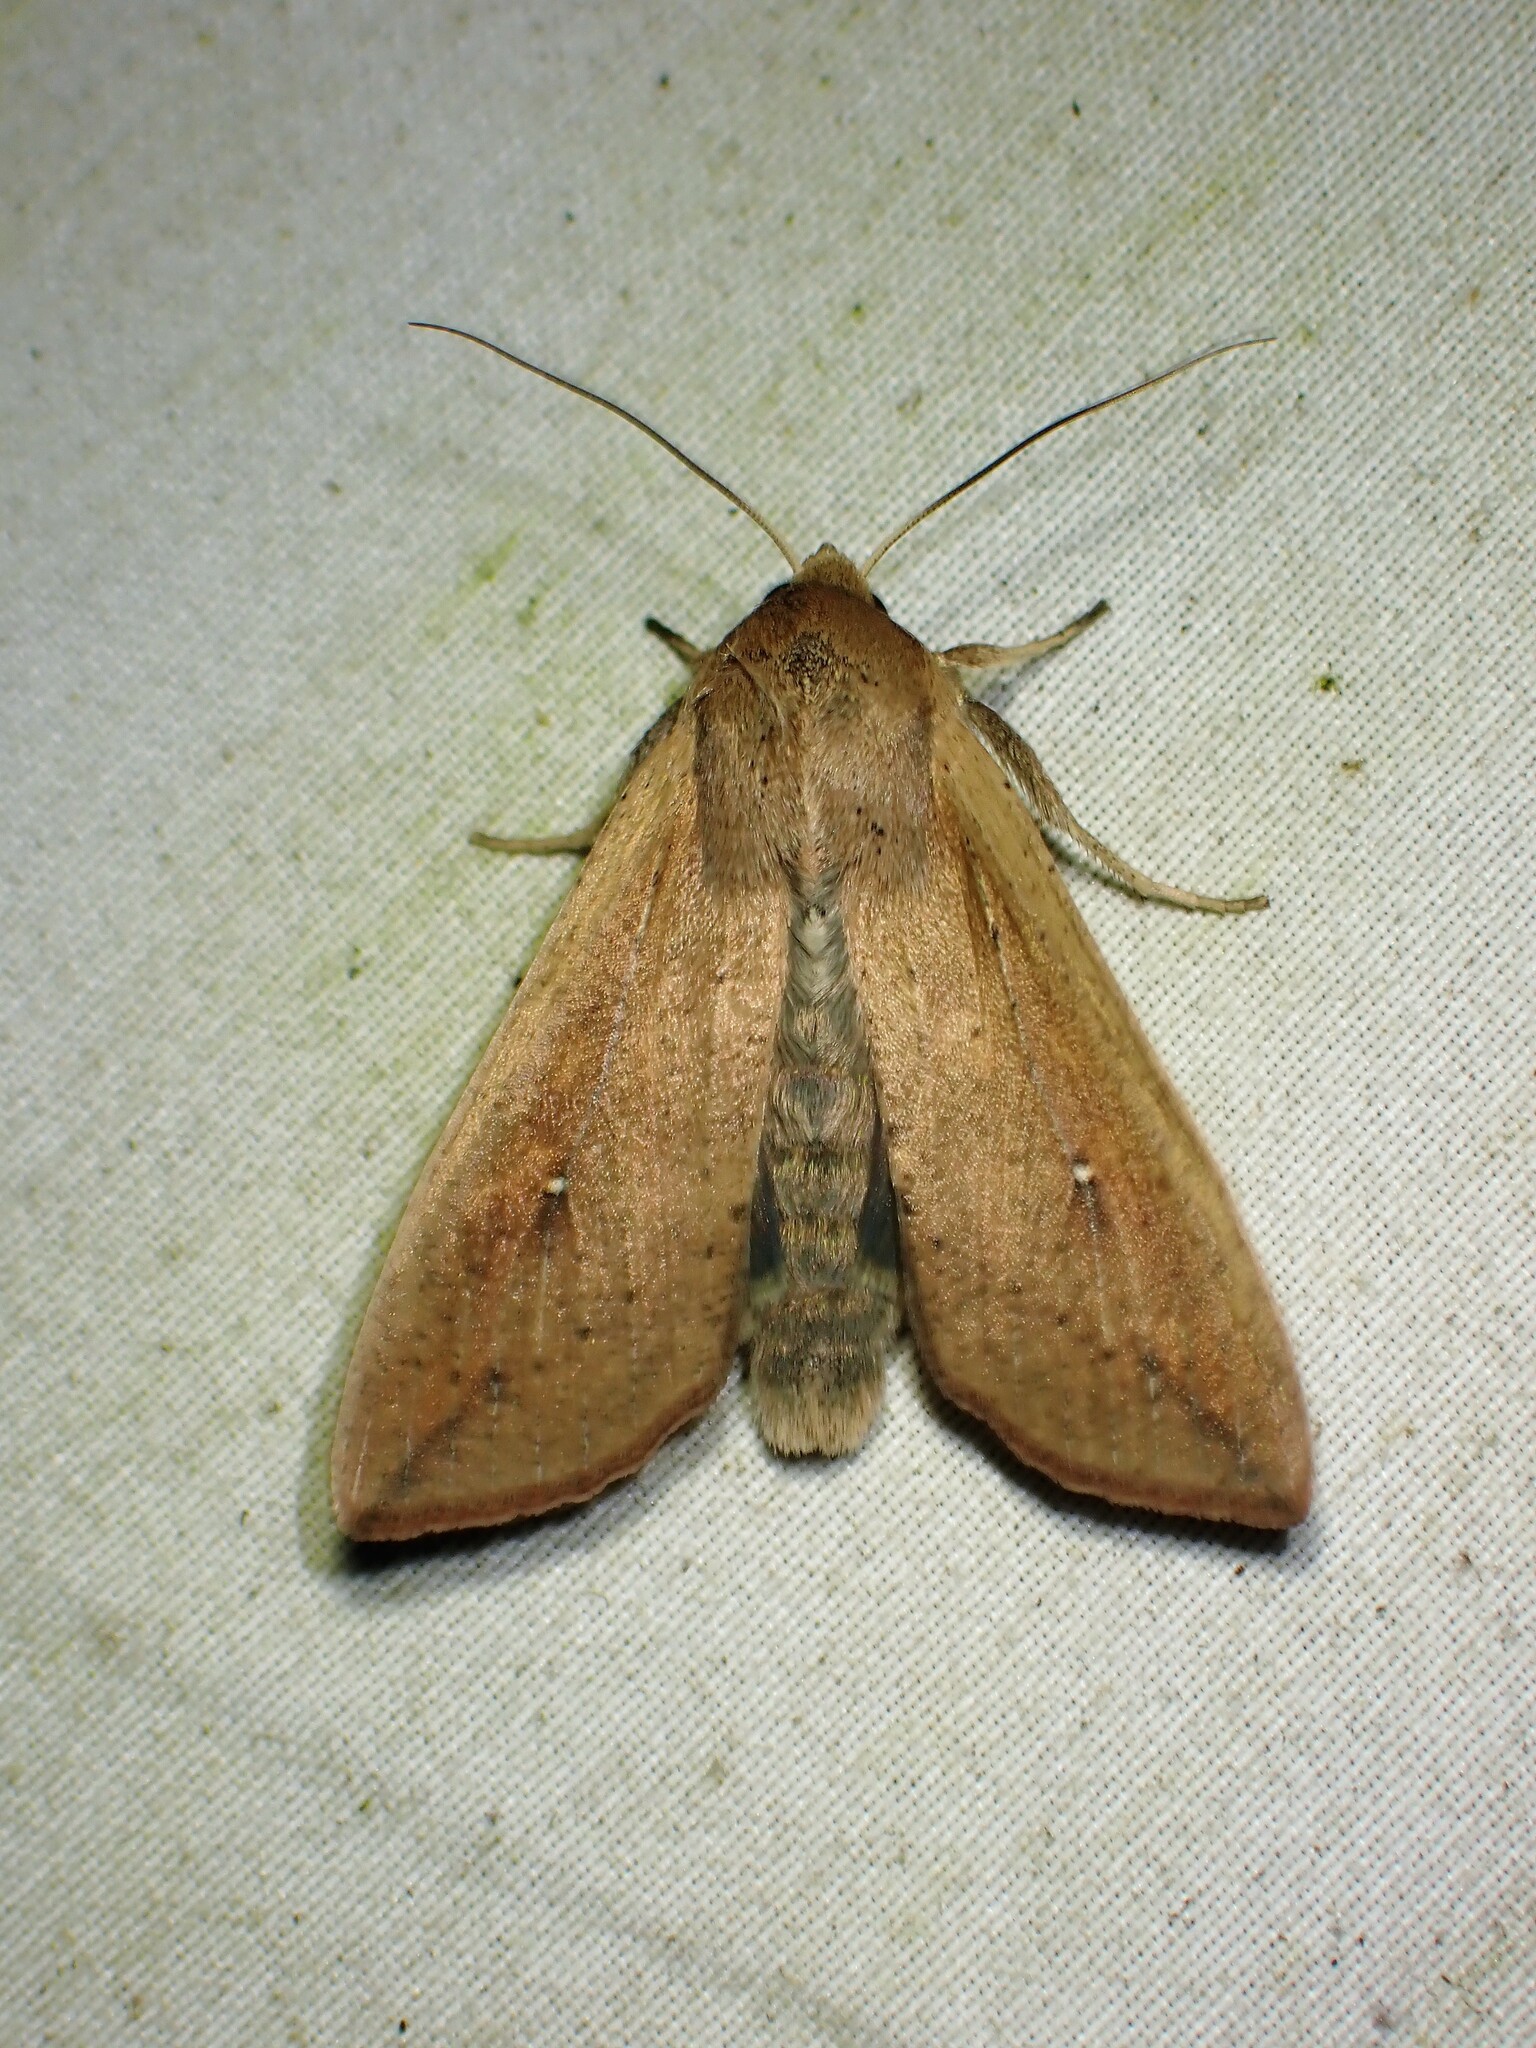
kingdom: Animalia
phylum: Arthropoda
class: Insecta
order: Lepidoptera
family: Noctuidae
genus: Mythimna
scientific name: Mythimna unipuncta
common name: White-speck
